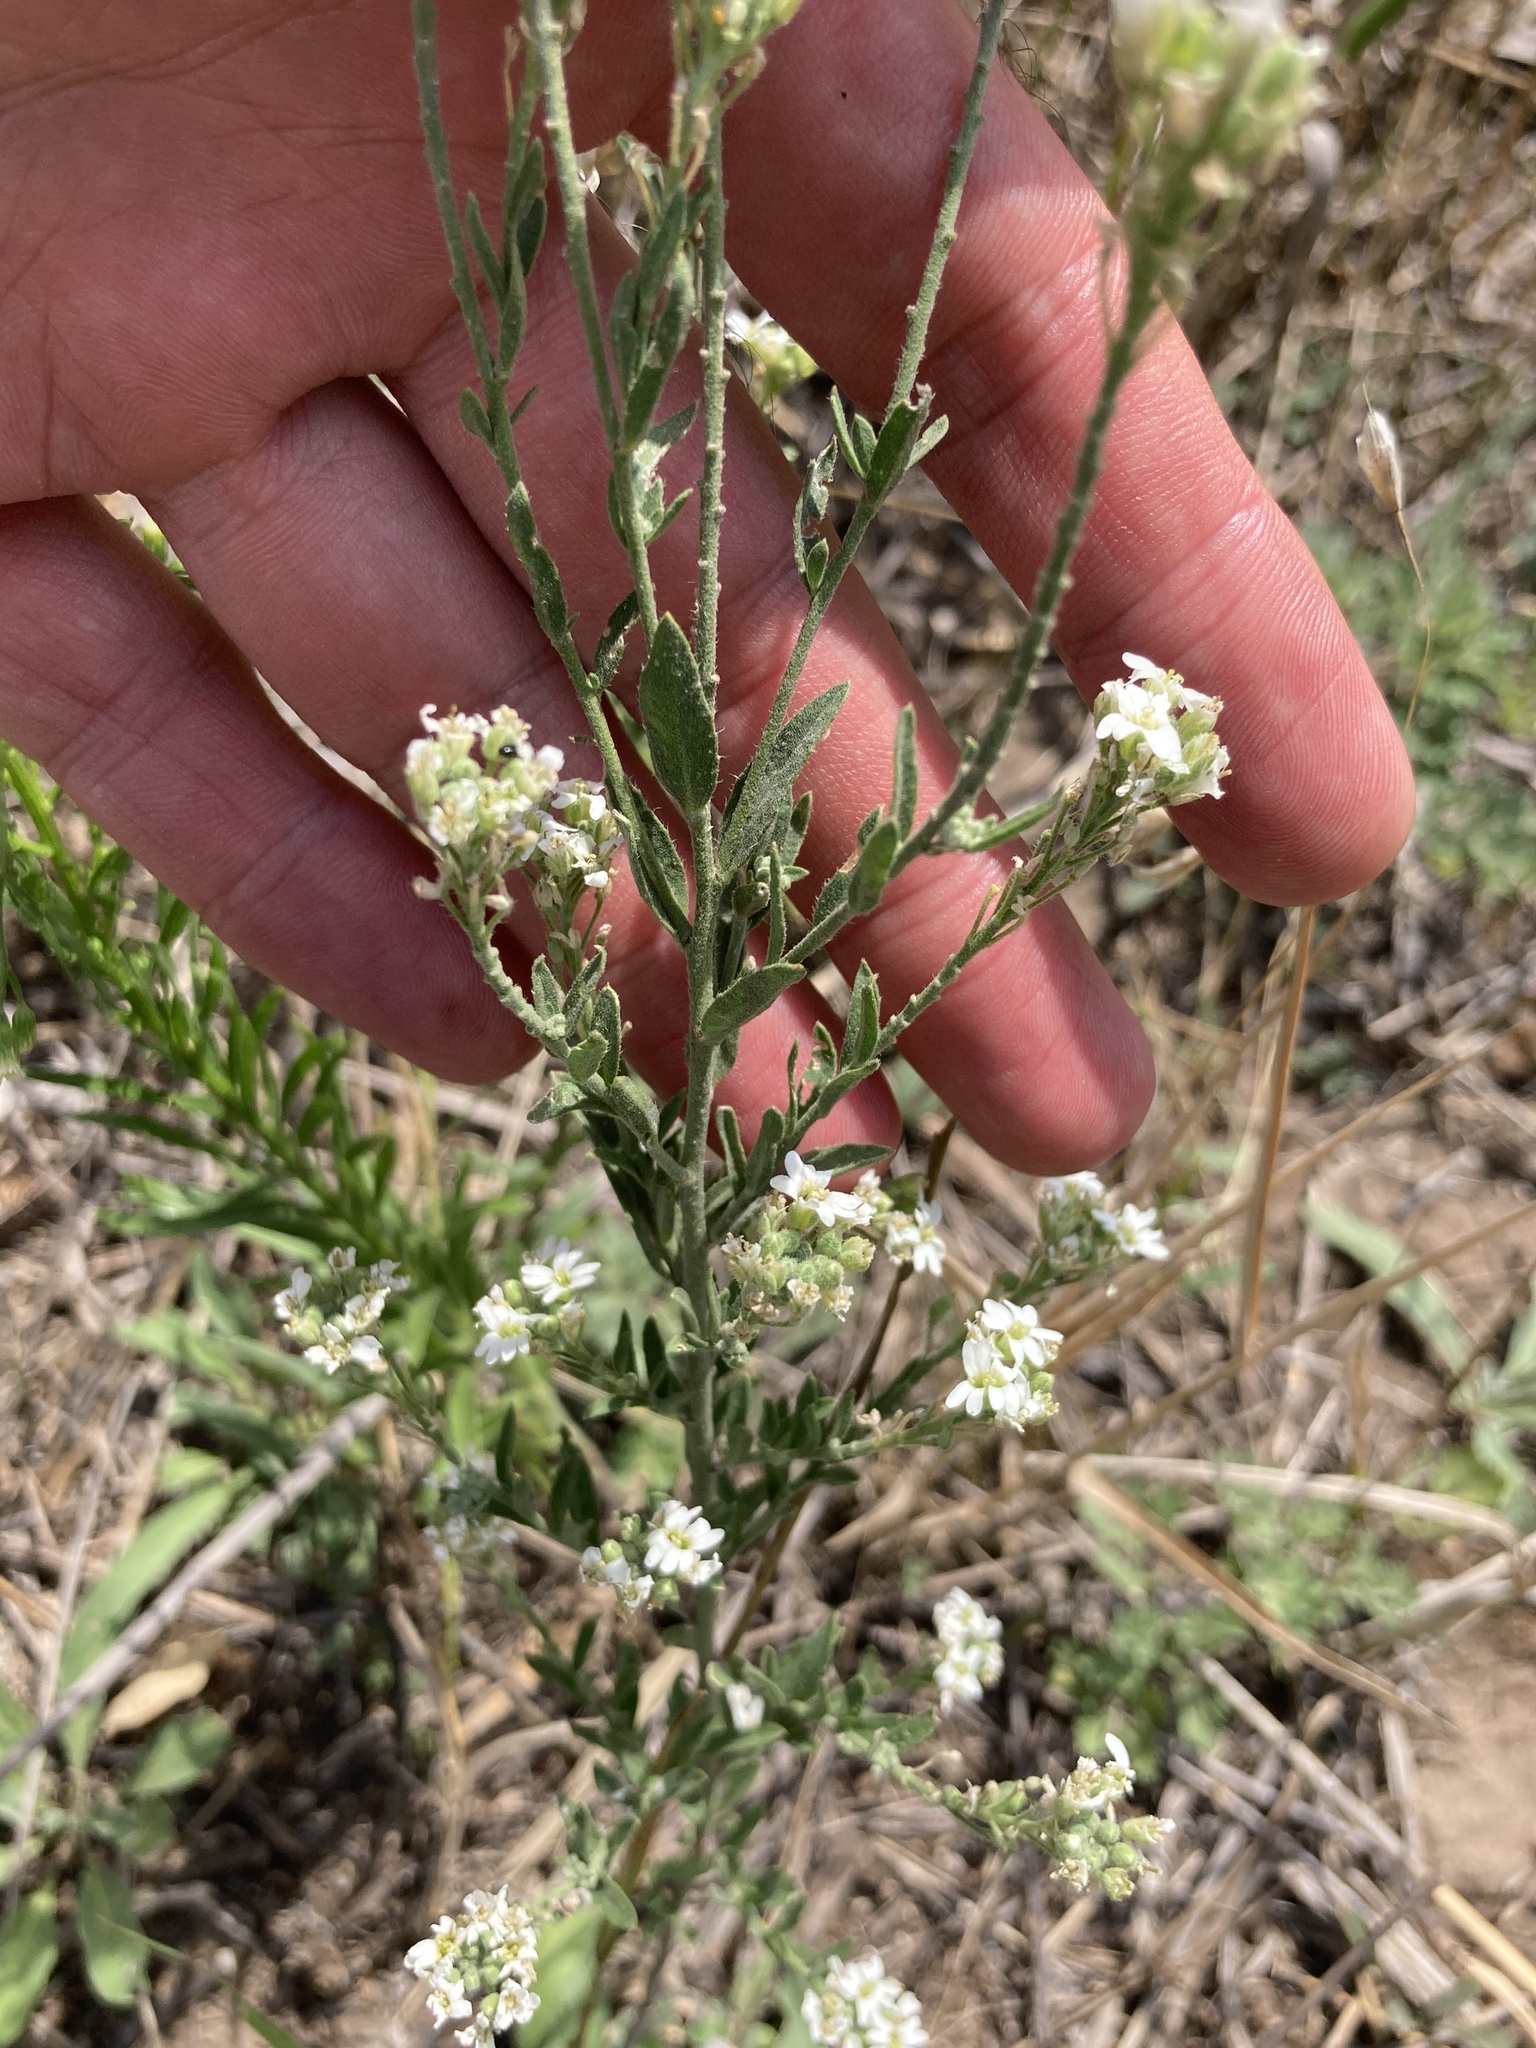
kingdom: Plantae
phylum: Tracheophyta
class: Magnoliopsida
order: Brassicales
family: Brassicaceae
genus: Berteroa
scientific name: Berteroa incana
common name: Hoary alison
